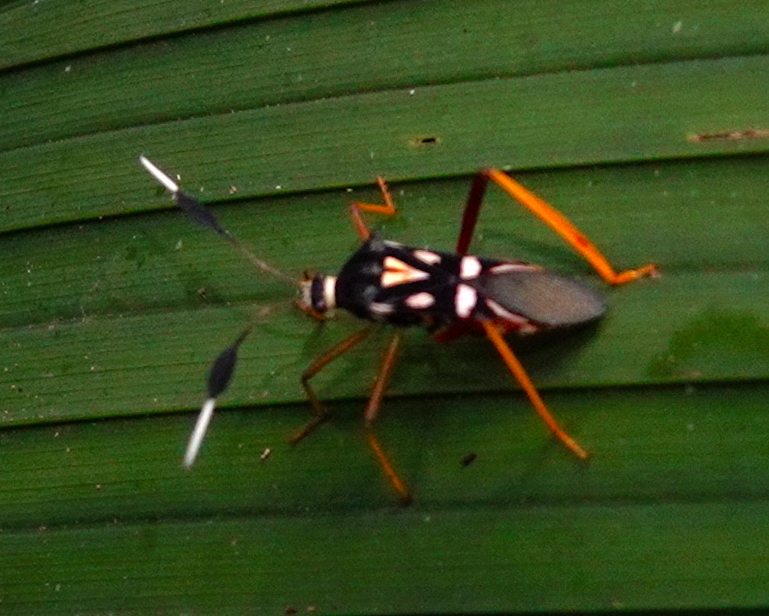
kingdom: Animalia
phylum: Arthropoda
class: Insecta
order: Hemiptera
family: Coreidae
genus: Baldus
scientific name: Baldus vinulus
